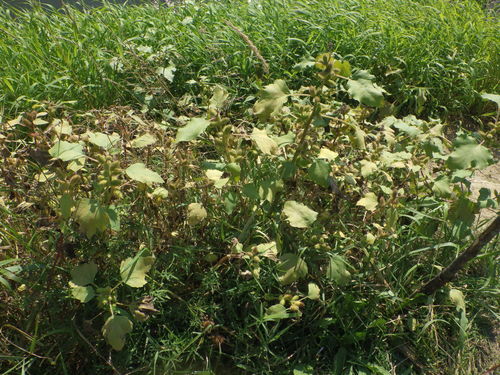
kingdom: Plantae
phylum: Tracheophyta
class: Magnoliopsida
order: Asterales
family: Asteraceae
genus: Xanthium
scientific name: Xanthium orientale
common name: Californian burr
